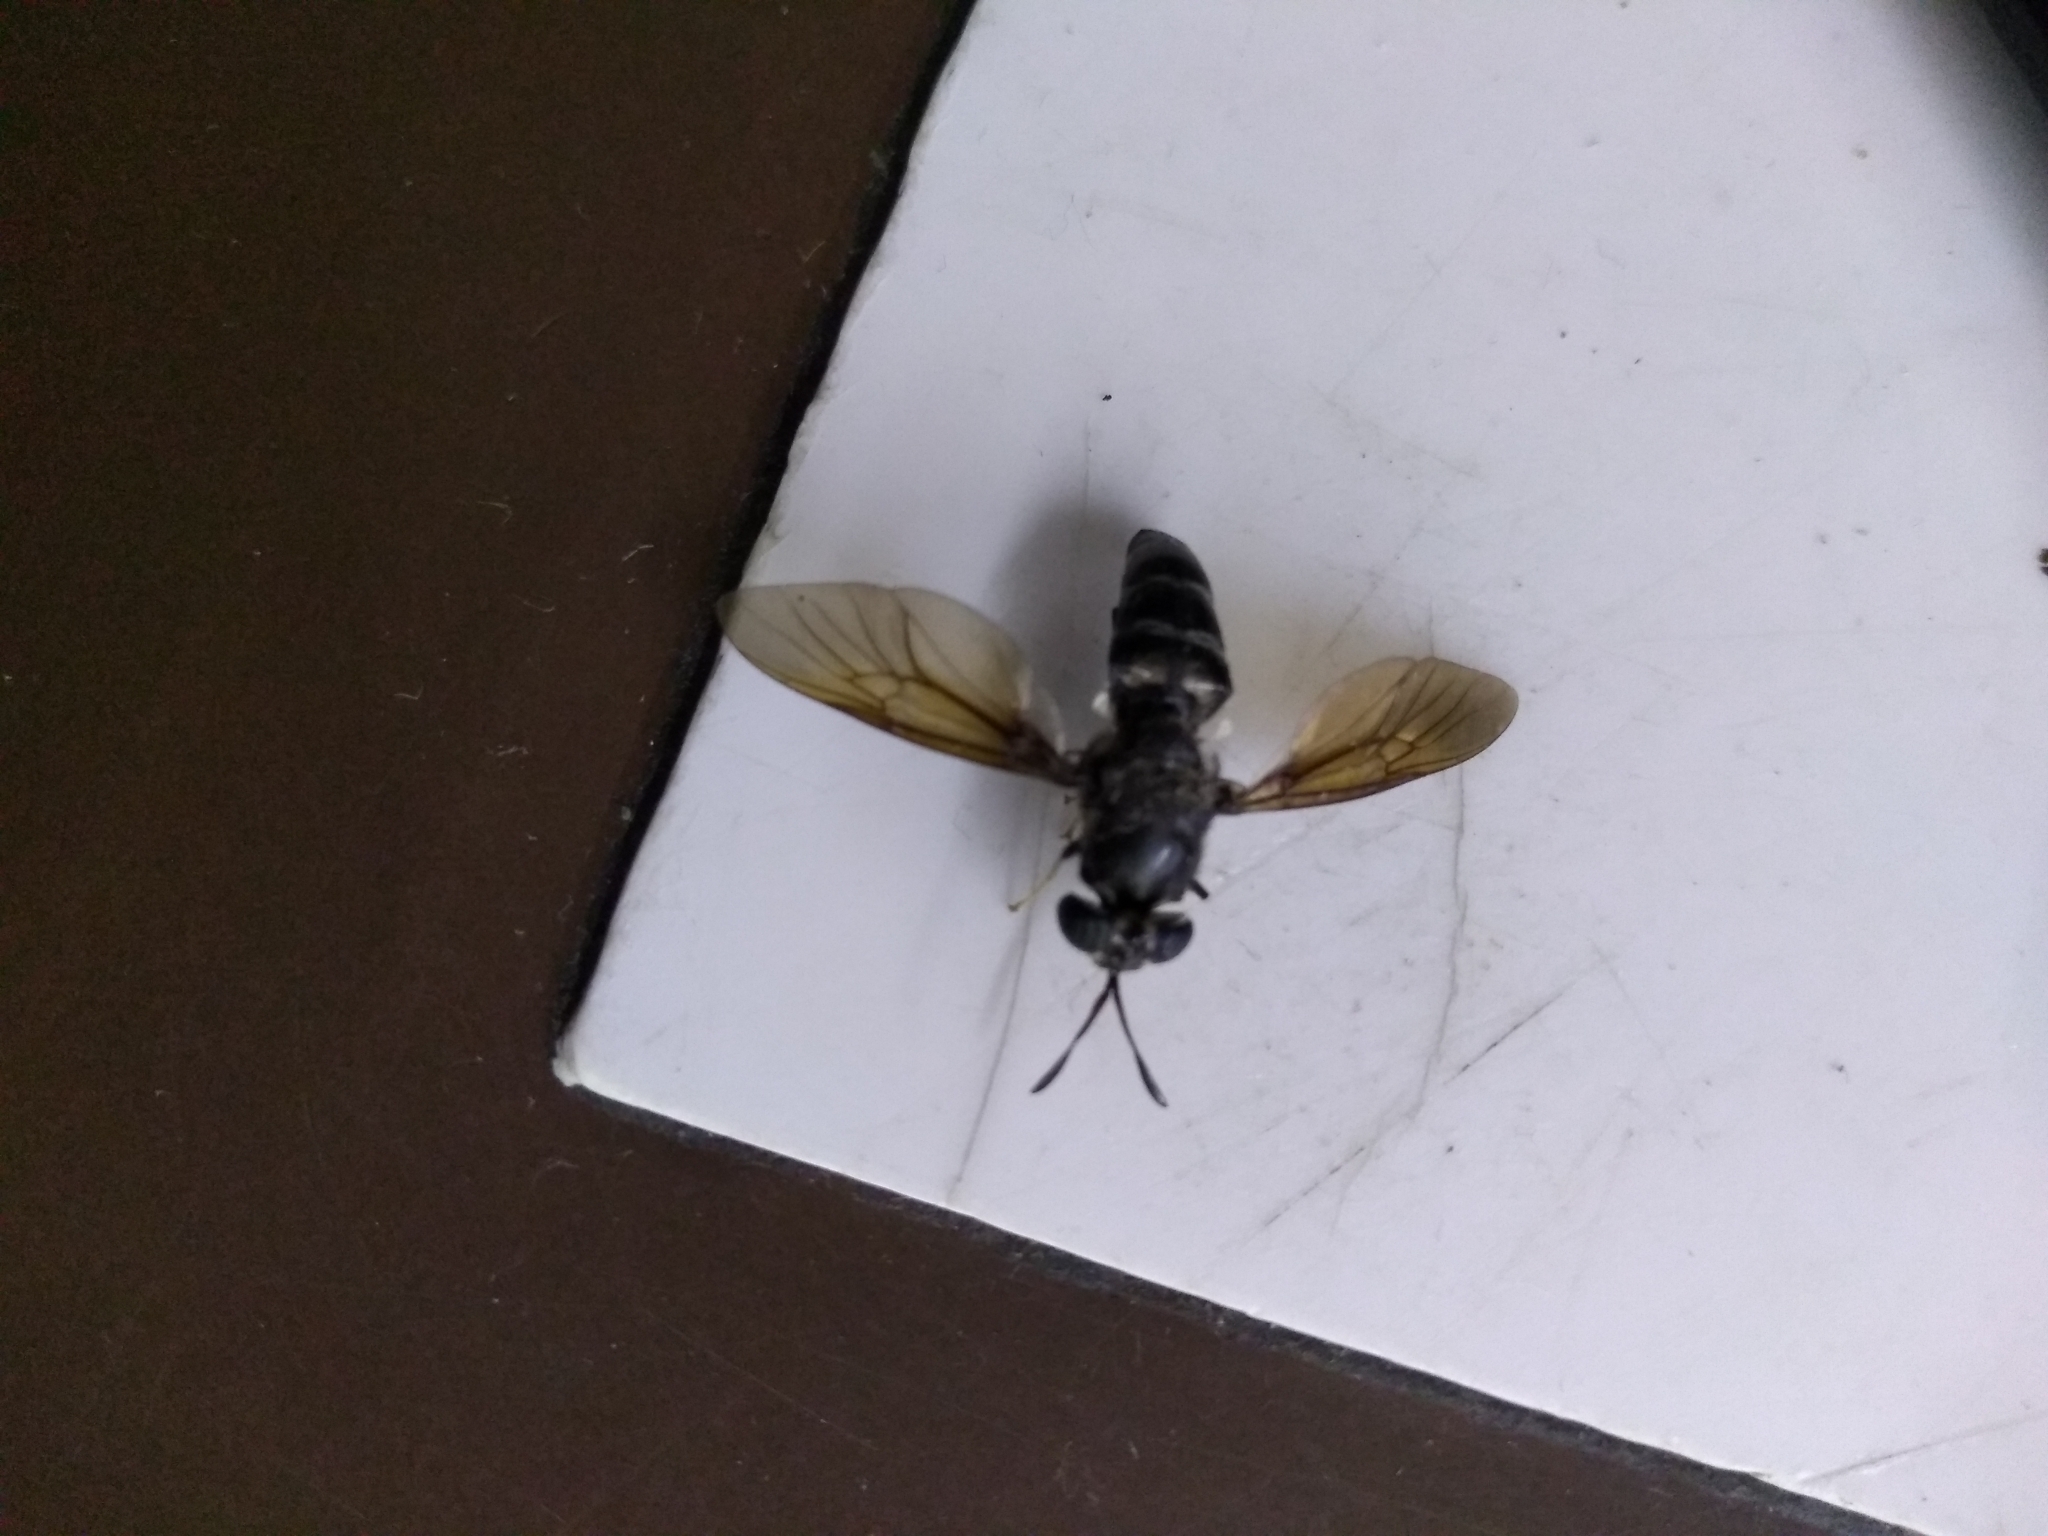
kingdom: Animalia
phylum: Arthropoda
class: Insecta
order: Diptera
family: Stratiomyidae
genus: Hermetia
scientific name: Hermetia illucens
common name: Black soldier fly
